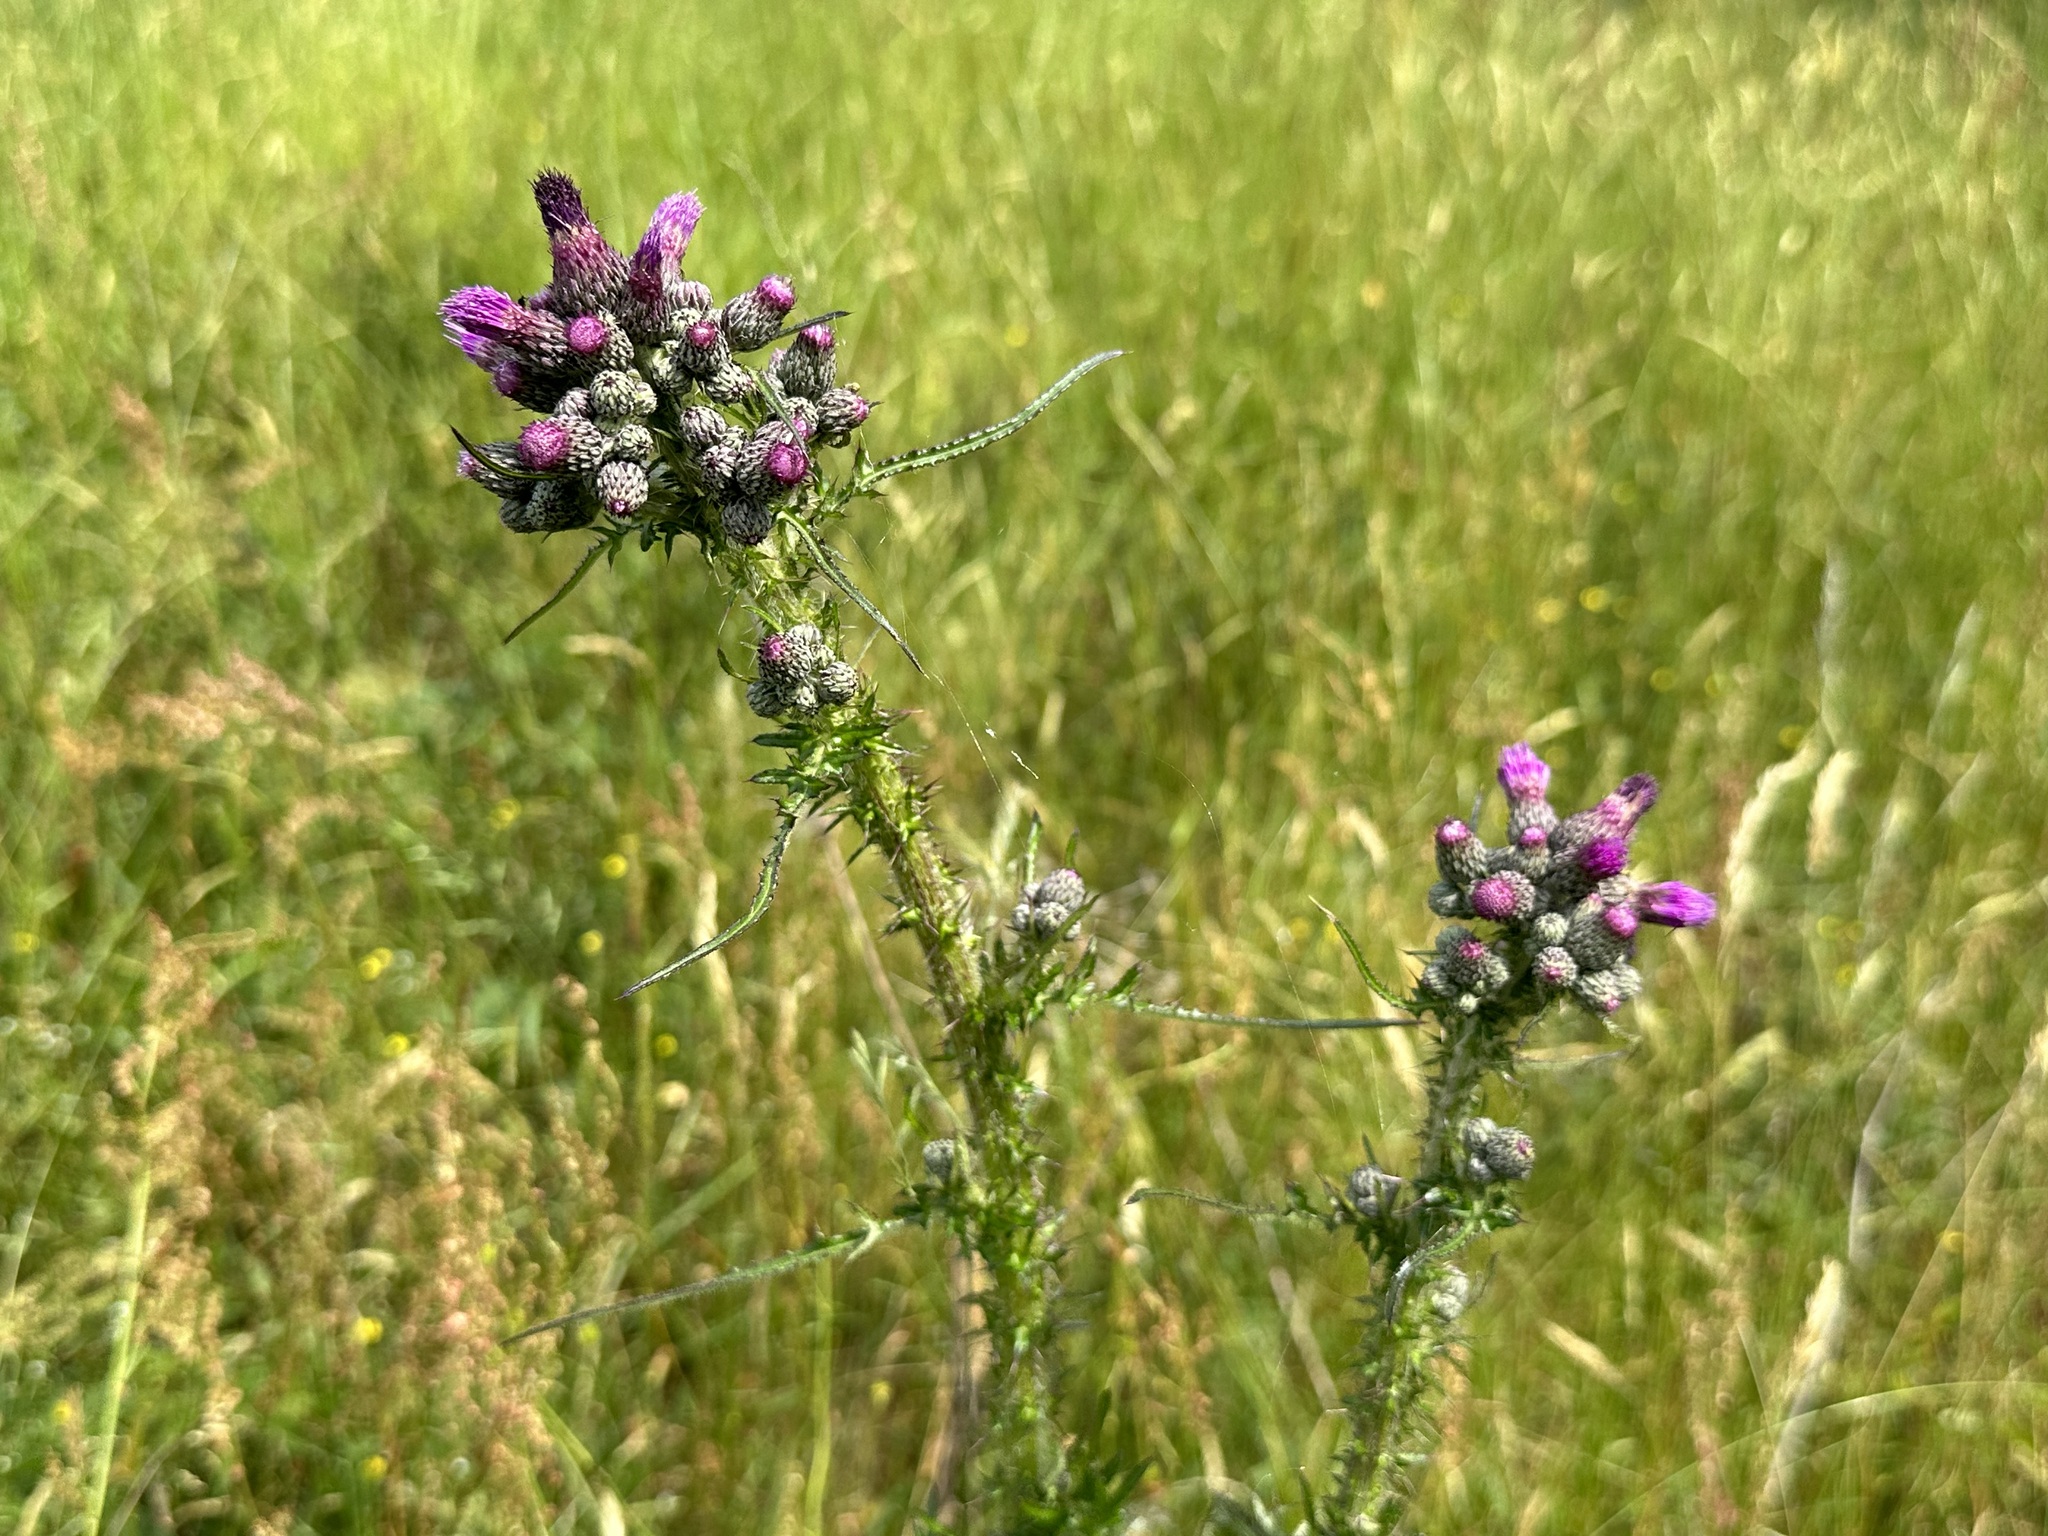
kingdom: Plantae
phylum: Tracheophyta
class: Magnoliopsida
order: Asterales
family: Asteraceae
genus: Cirsium
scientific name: Cirsium palustre
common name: Marsh thistle
